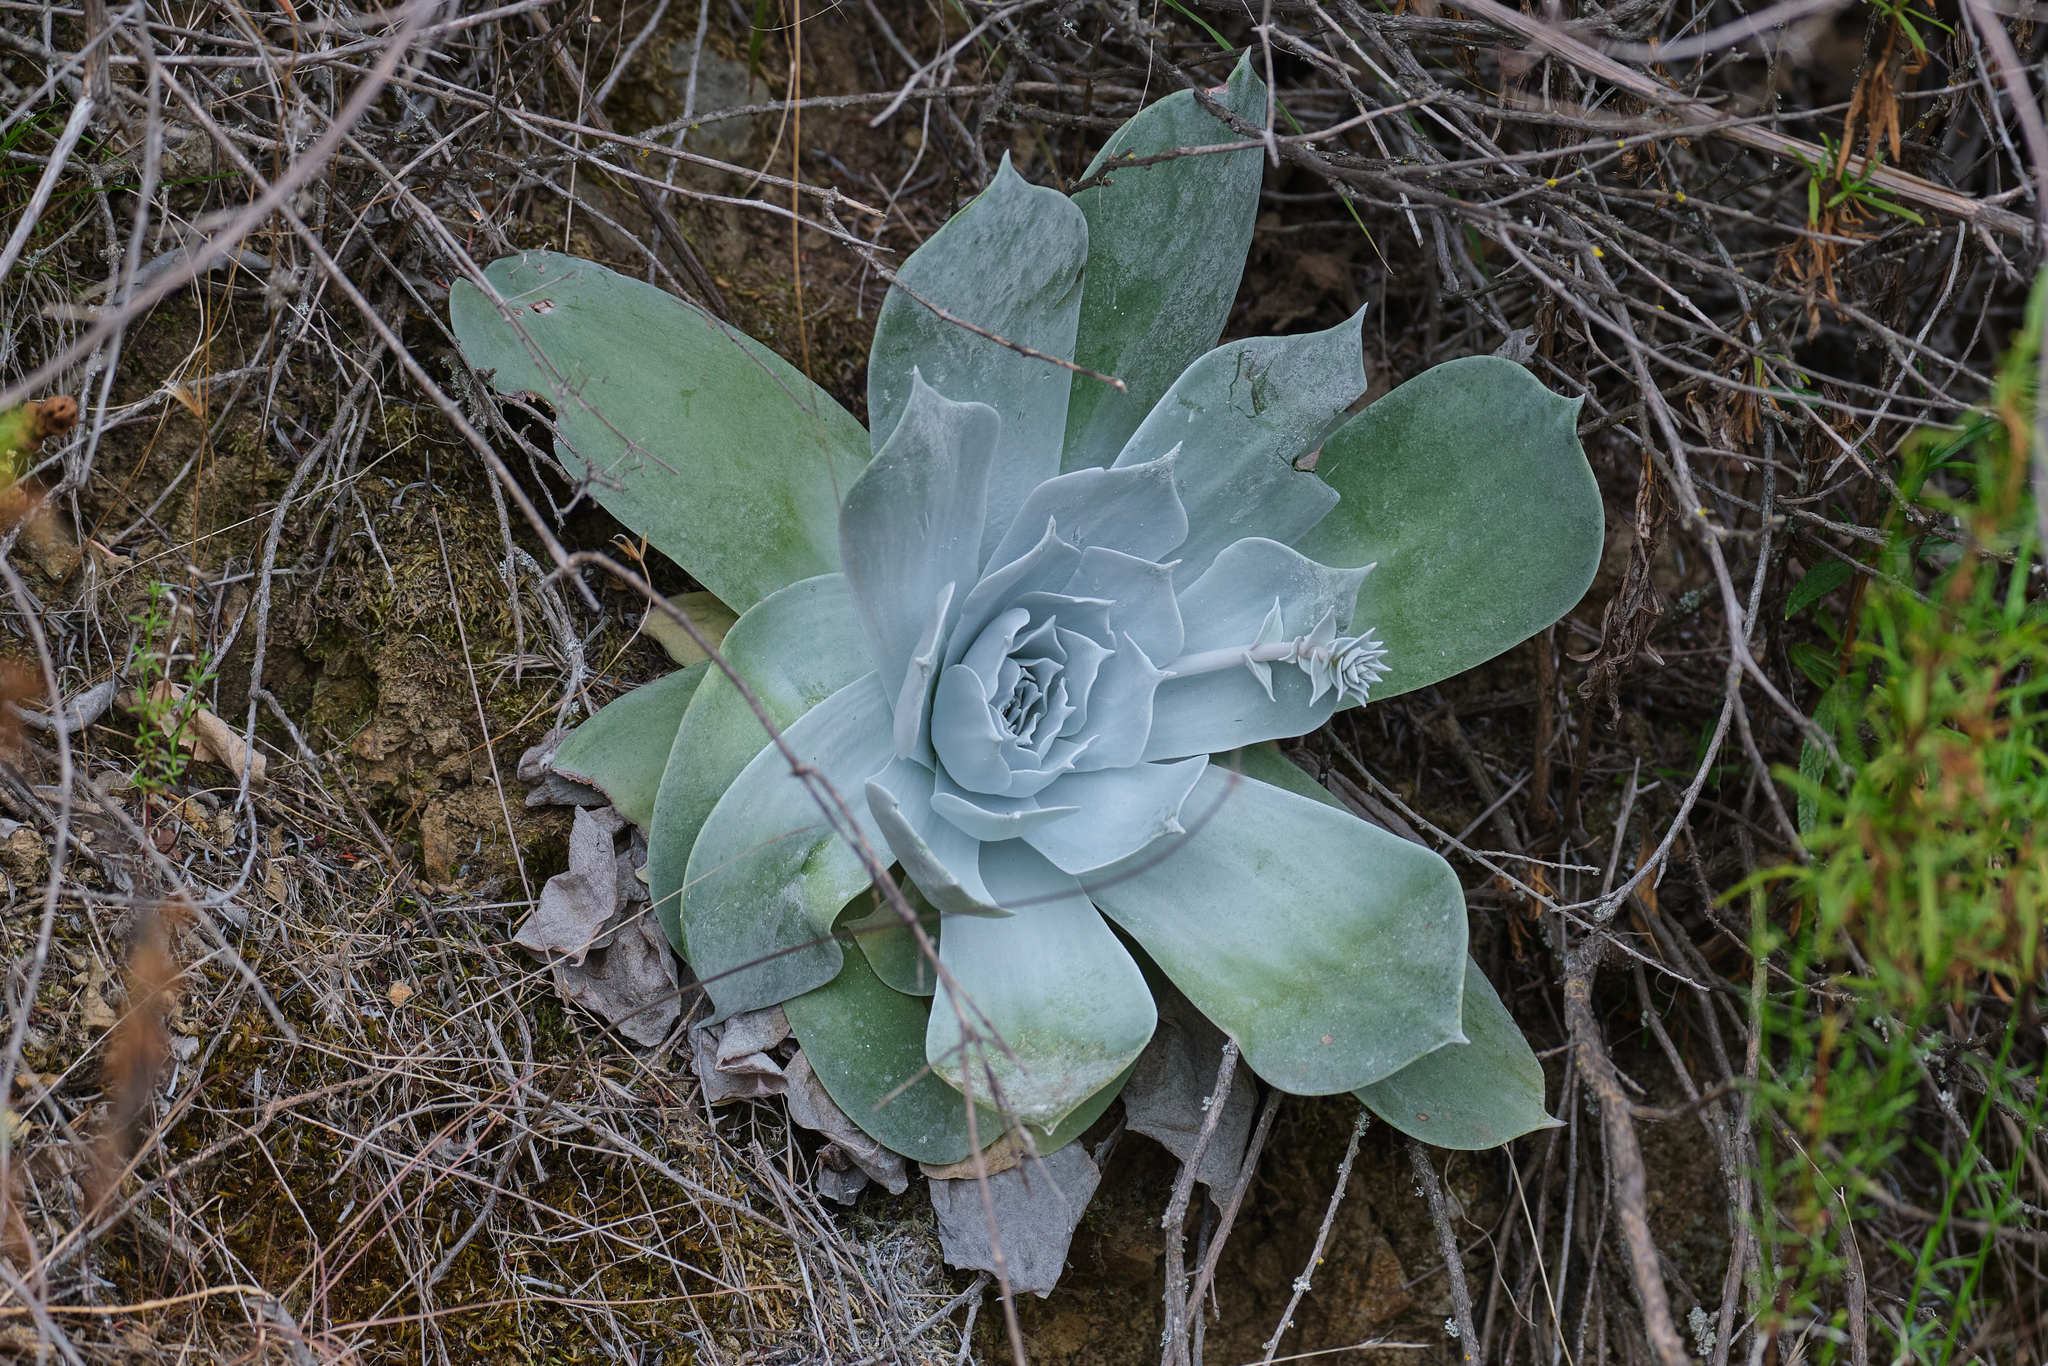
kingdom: Plantae
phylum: Tracheophyta
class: Magnoliopsida
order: Saxifragales
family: Crassulaceae
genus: Dudleya
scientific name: Dudleya pulverulenta
